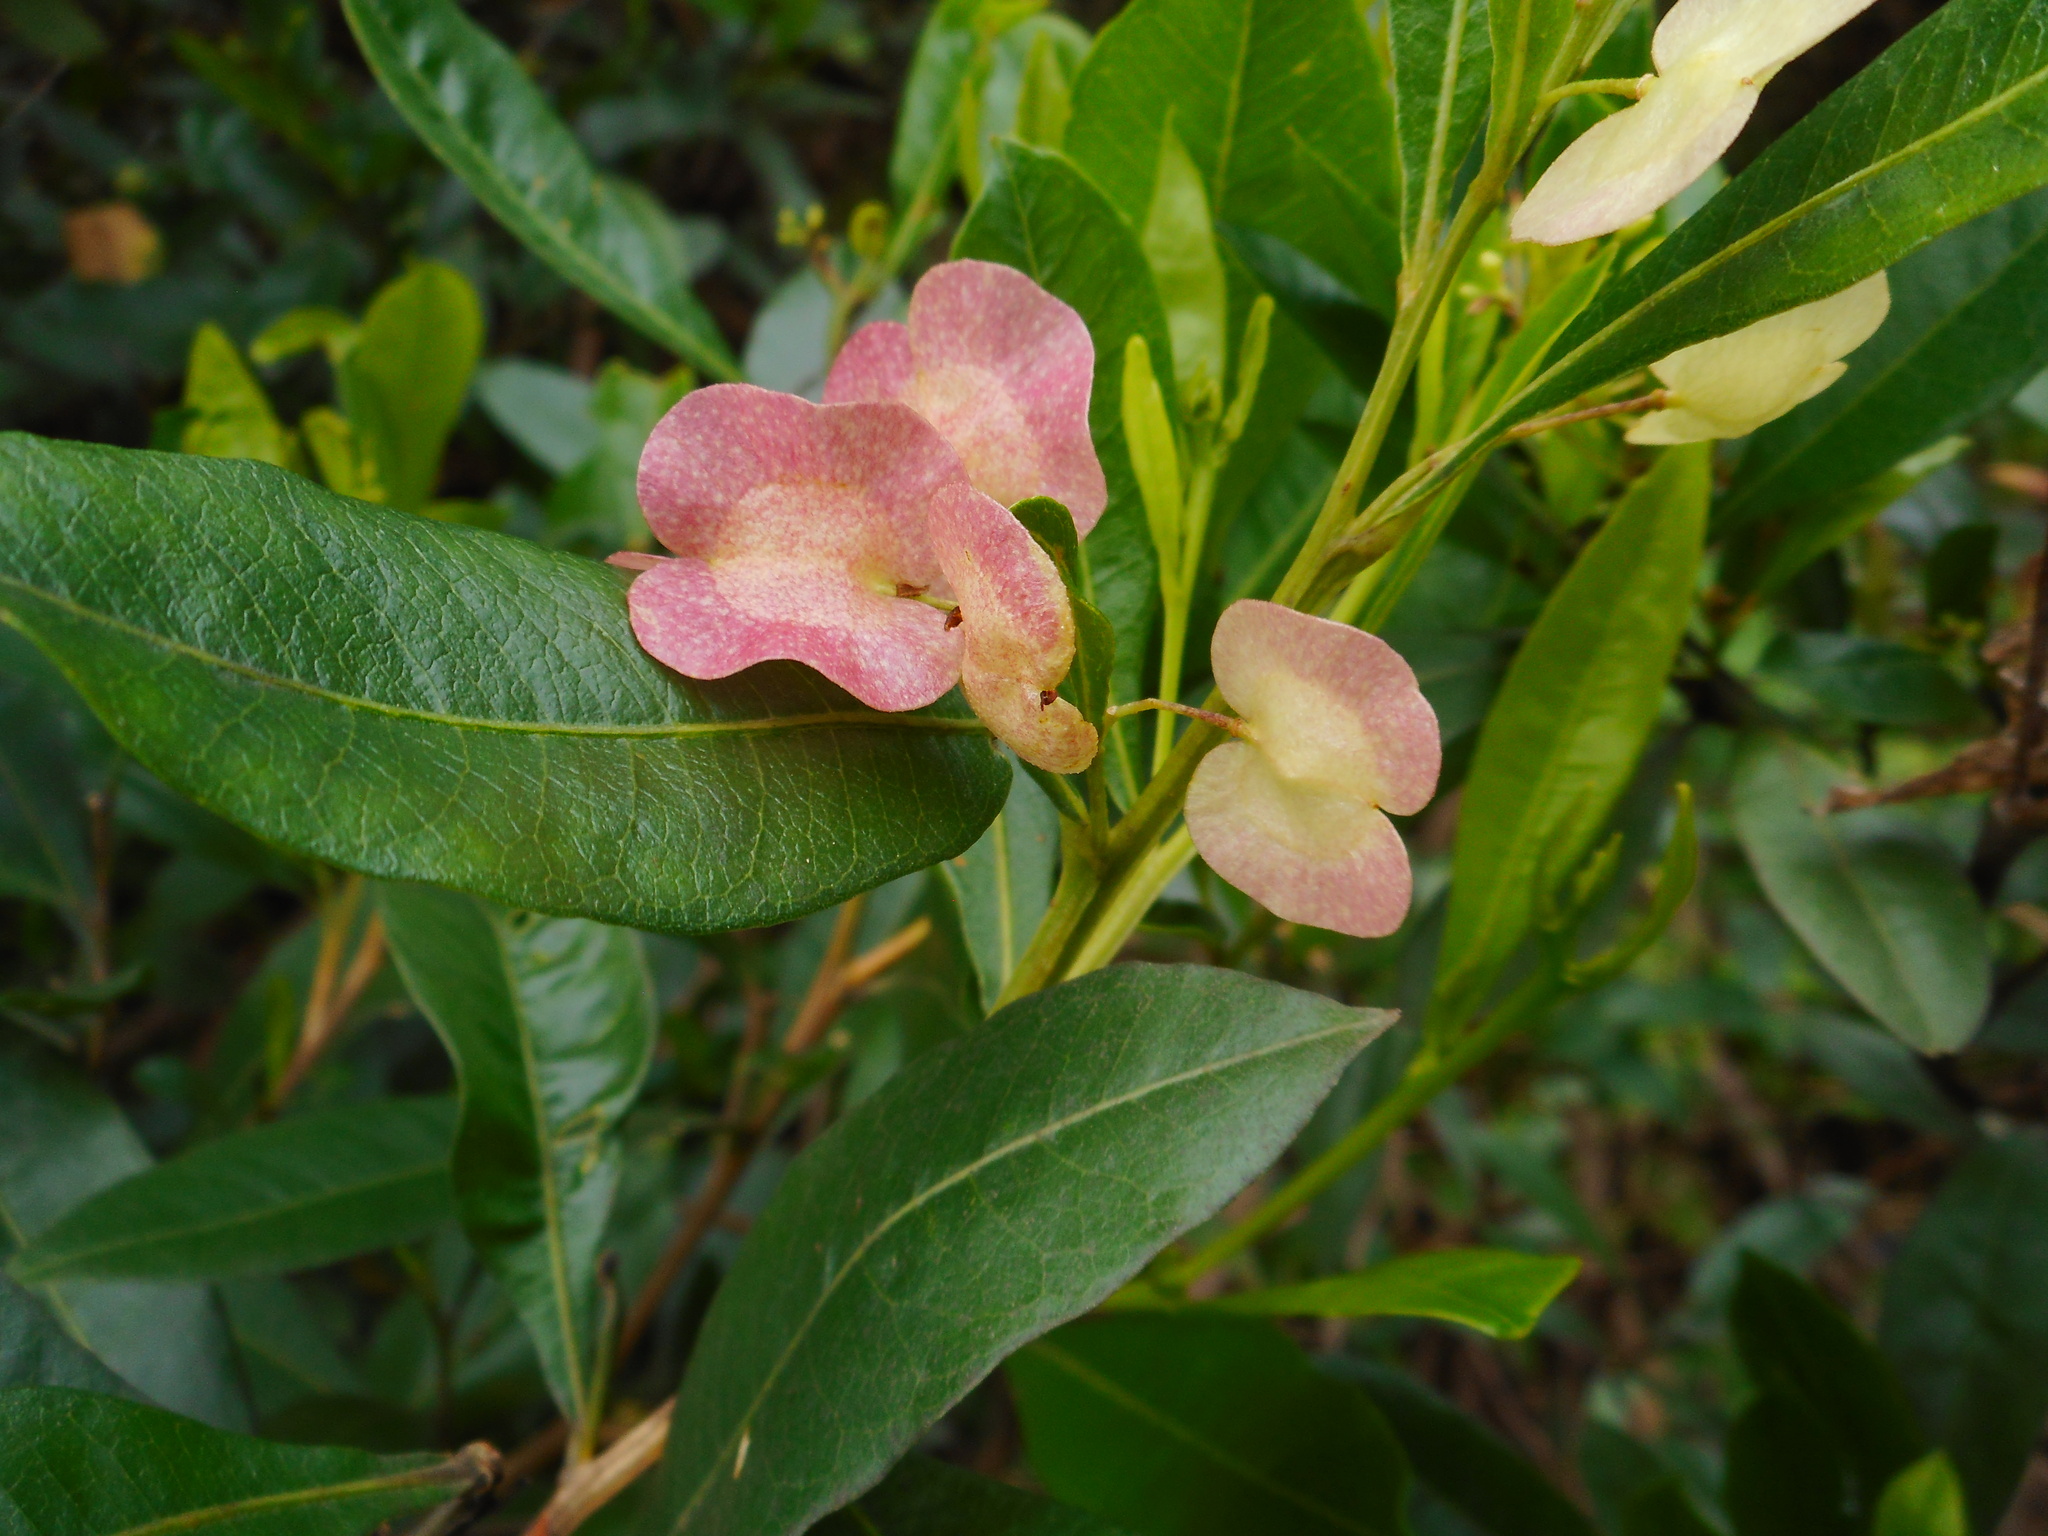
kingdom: Plantae
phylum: Tracheophyta
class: Magnoliopsida
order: Sapindales
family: Sapindaceae
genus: Dodonaea
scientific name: Dodonaea viscosa
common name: Hopbush
